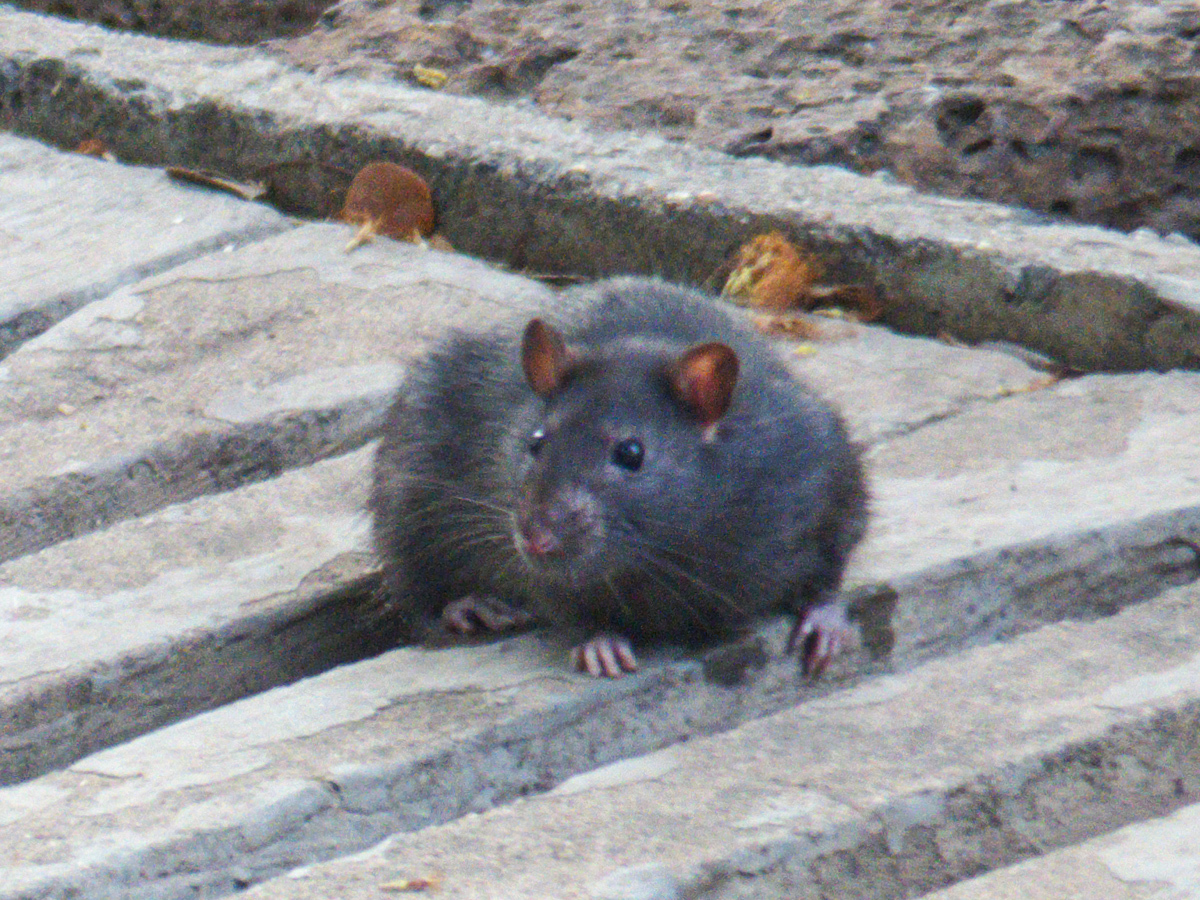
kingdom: Animalia
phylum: Chordata
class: Mammalia
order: Rodentia
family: Muridae
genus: Rattus
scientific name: Rattus norvegicus
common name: Brown rat
